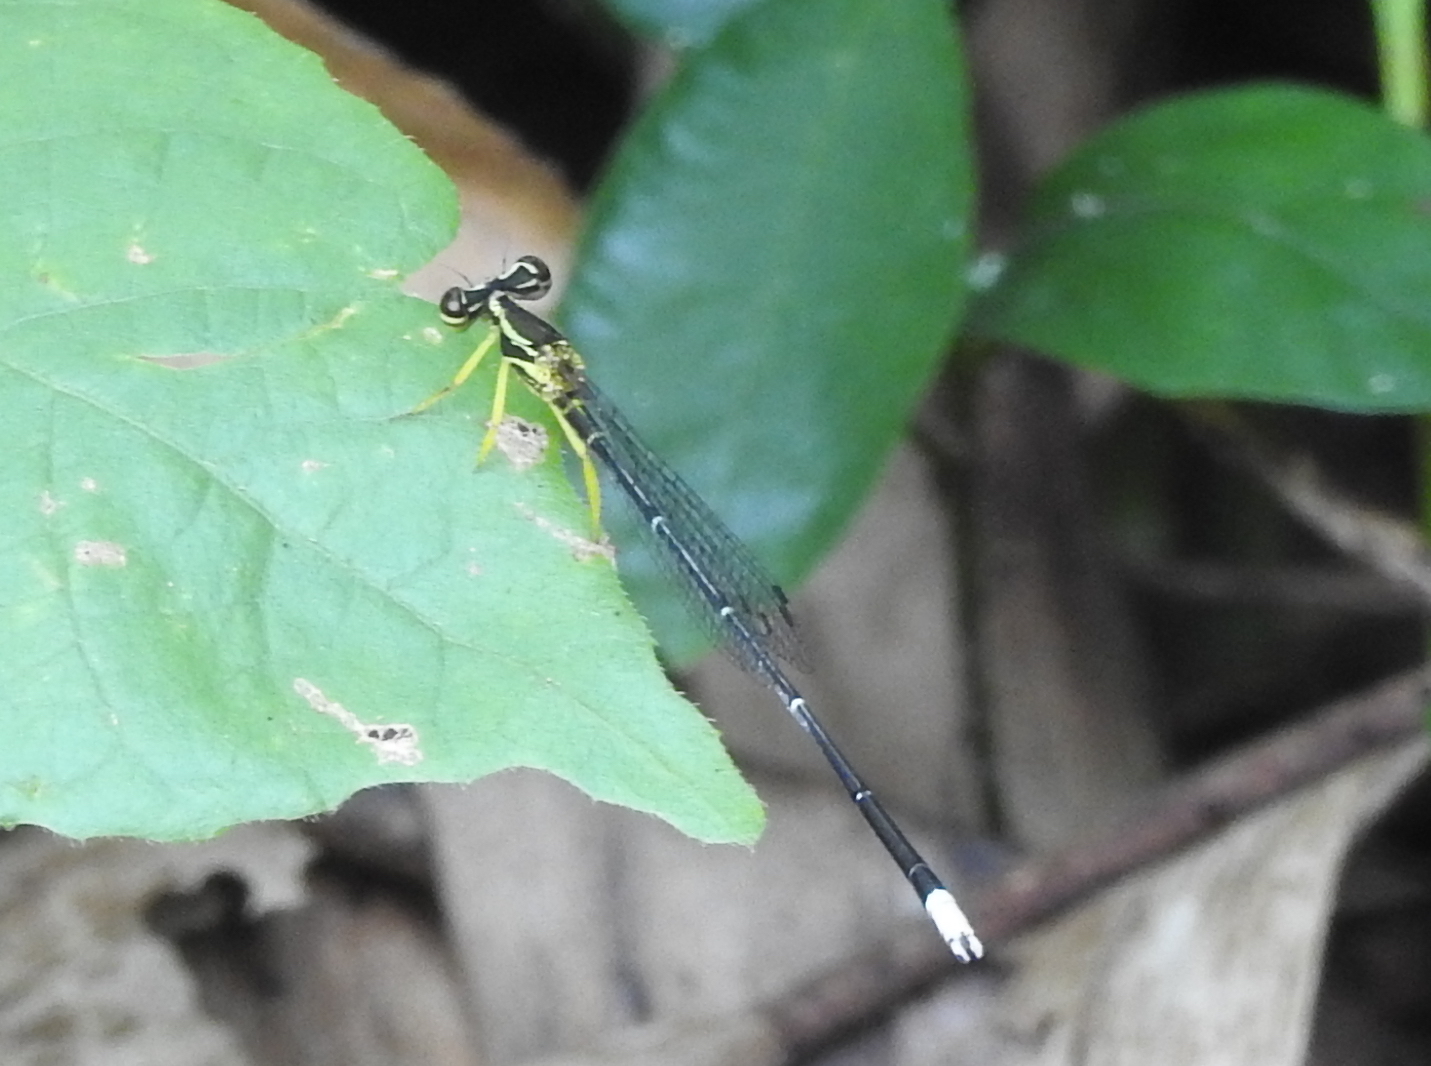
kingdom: Animalia
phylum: Arthropoda
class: Insecta
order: Odonata
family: Platycnemididae
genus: Copera
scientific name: Copera marginipes
